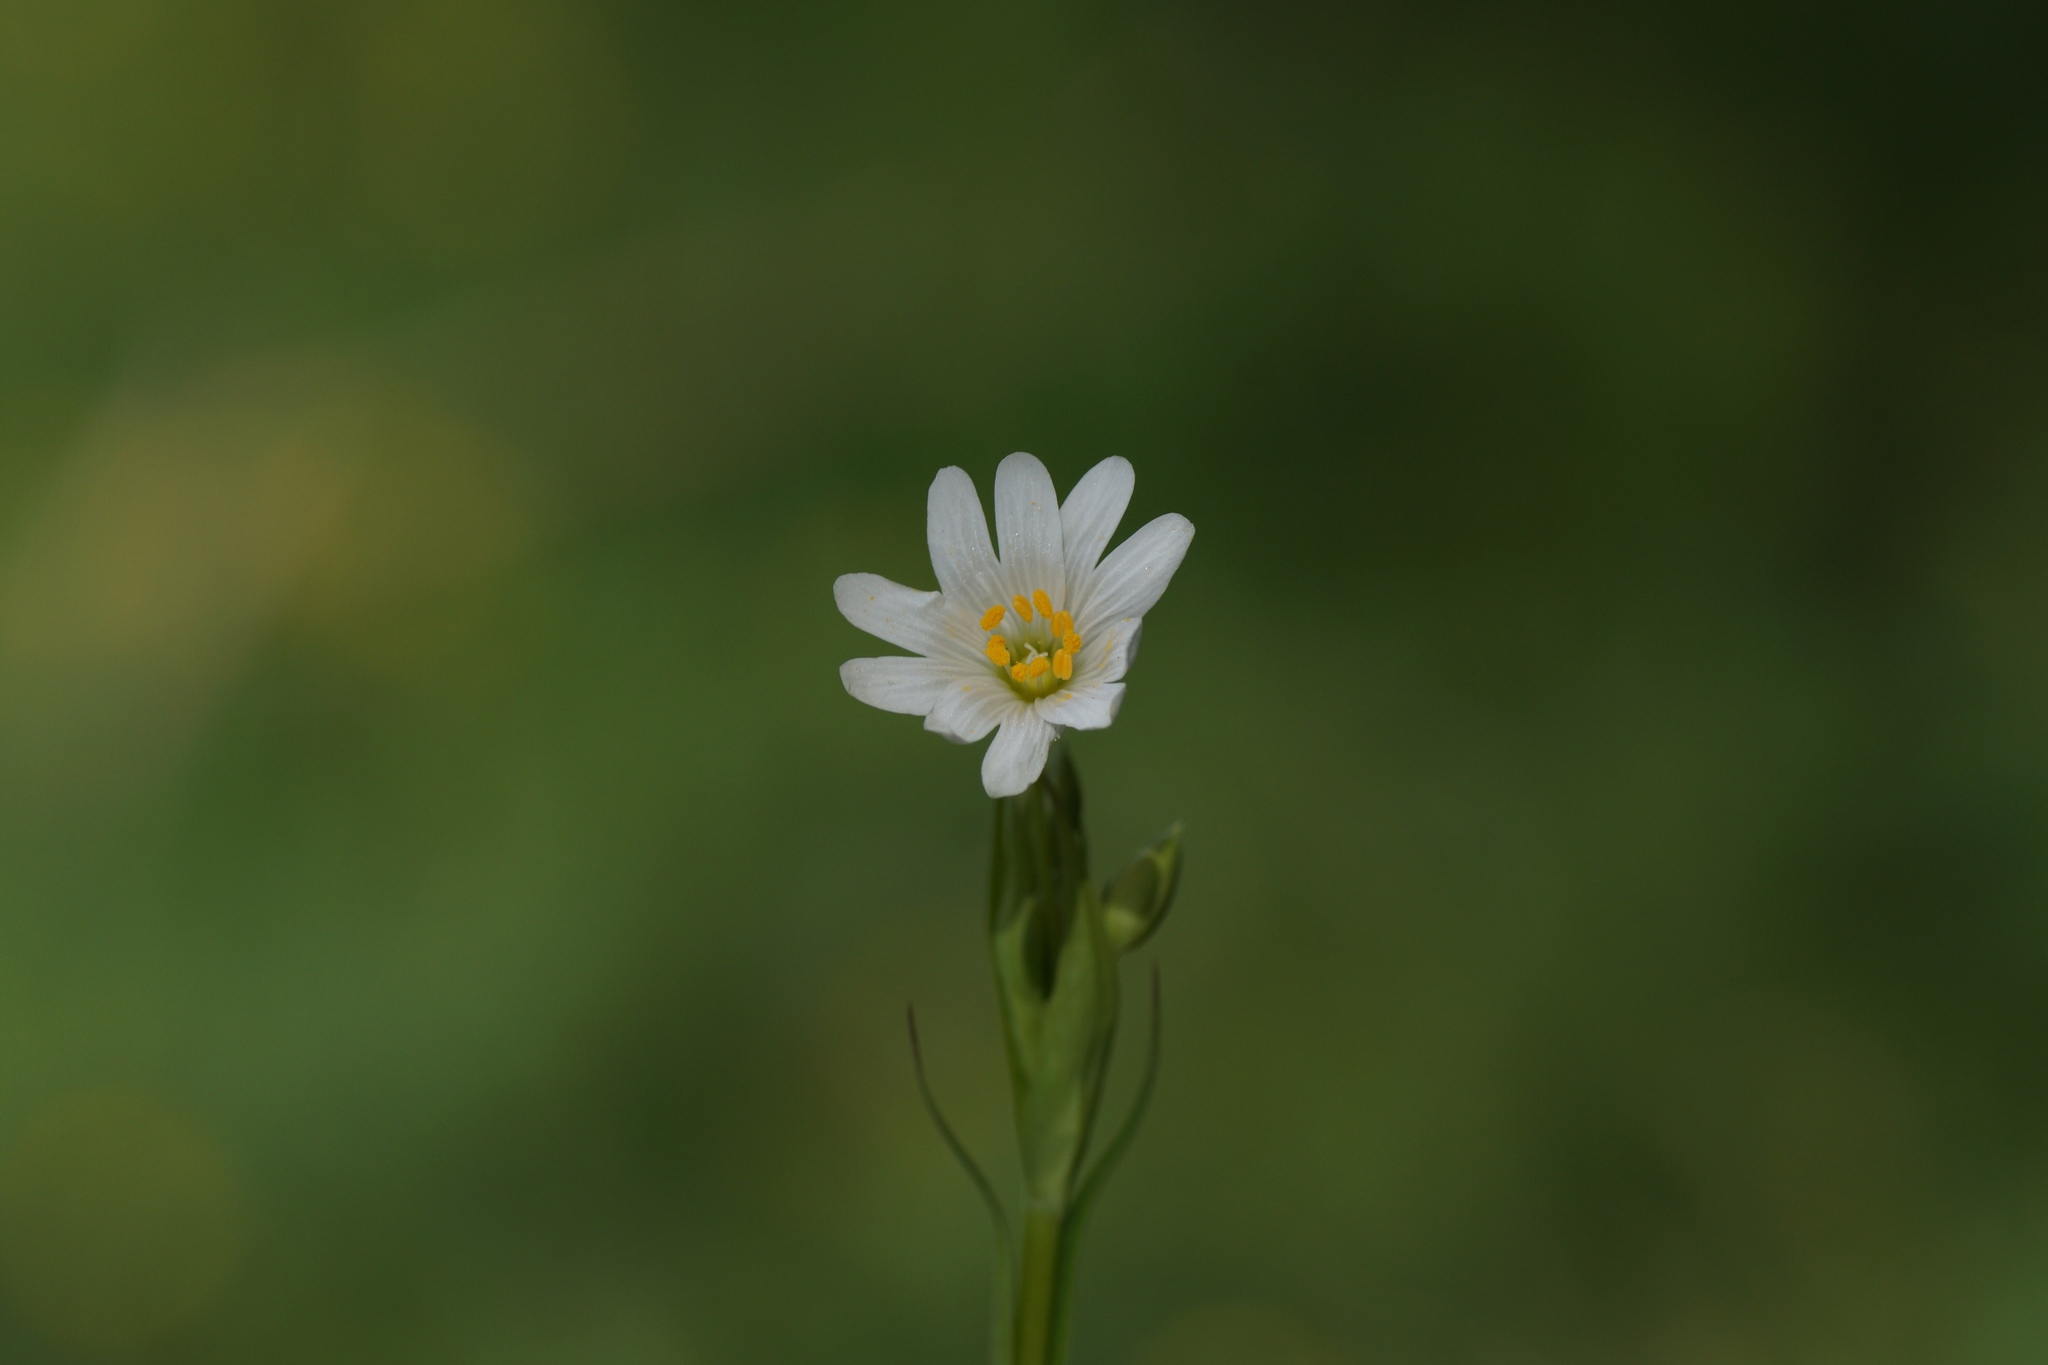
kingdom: Plantae
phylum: Tracheophyta
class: Magnoliopsida
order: Caryophyllales
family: Caryophyllaceae
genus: Rabelera
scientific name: Rabelera holostea
